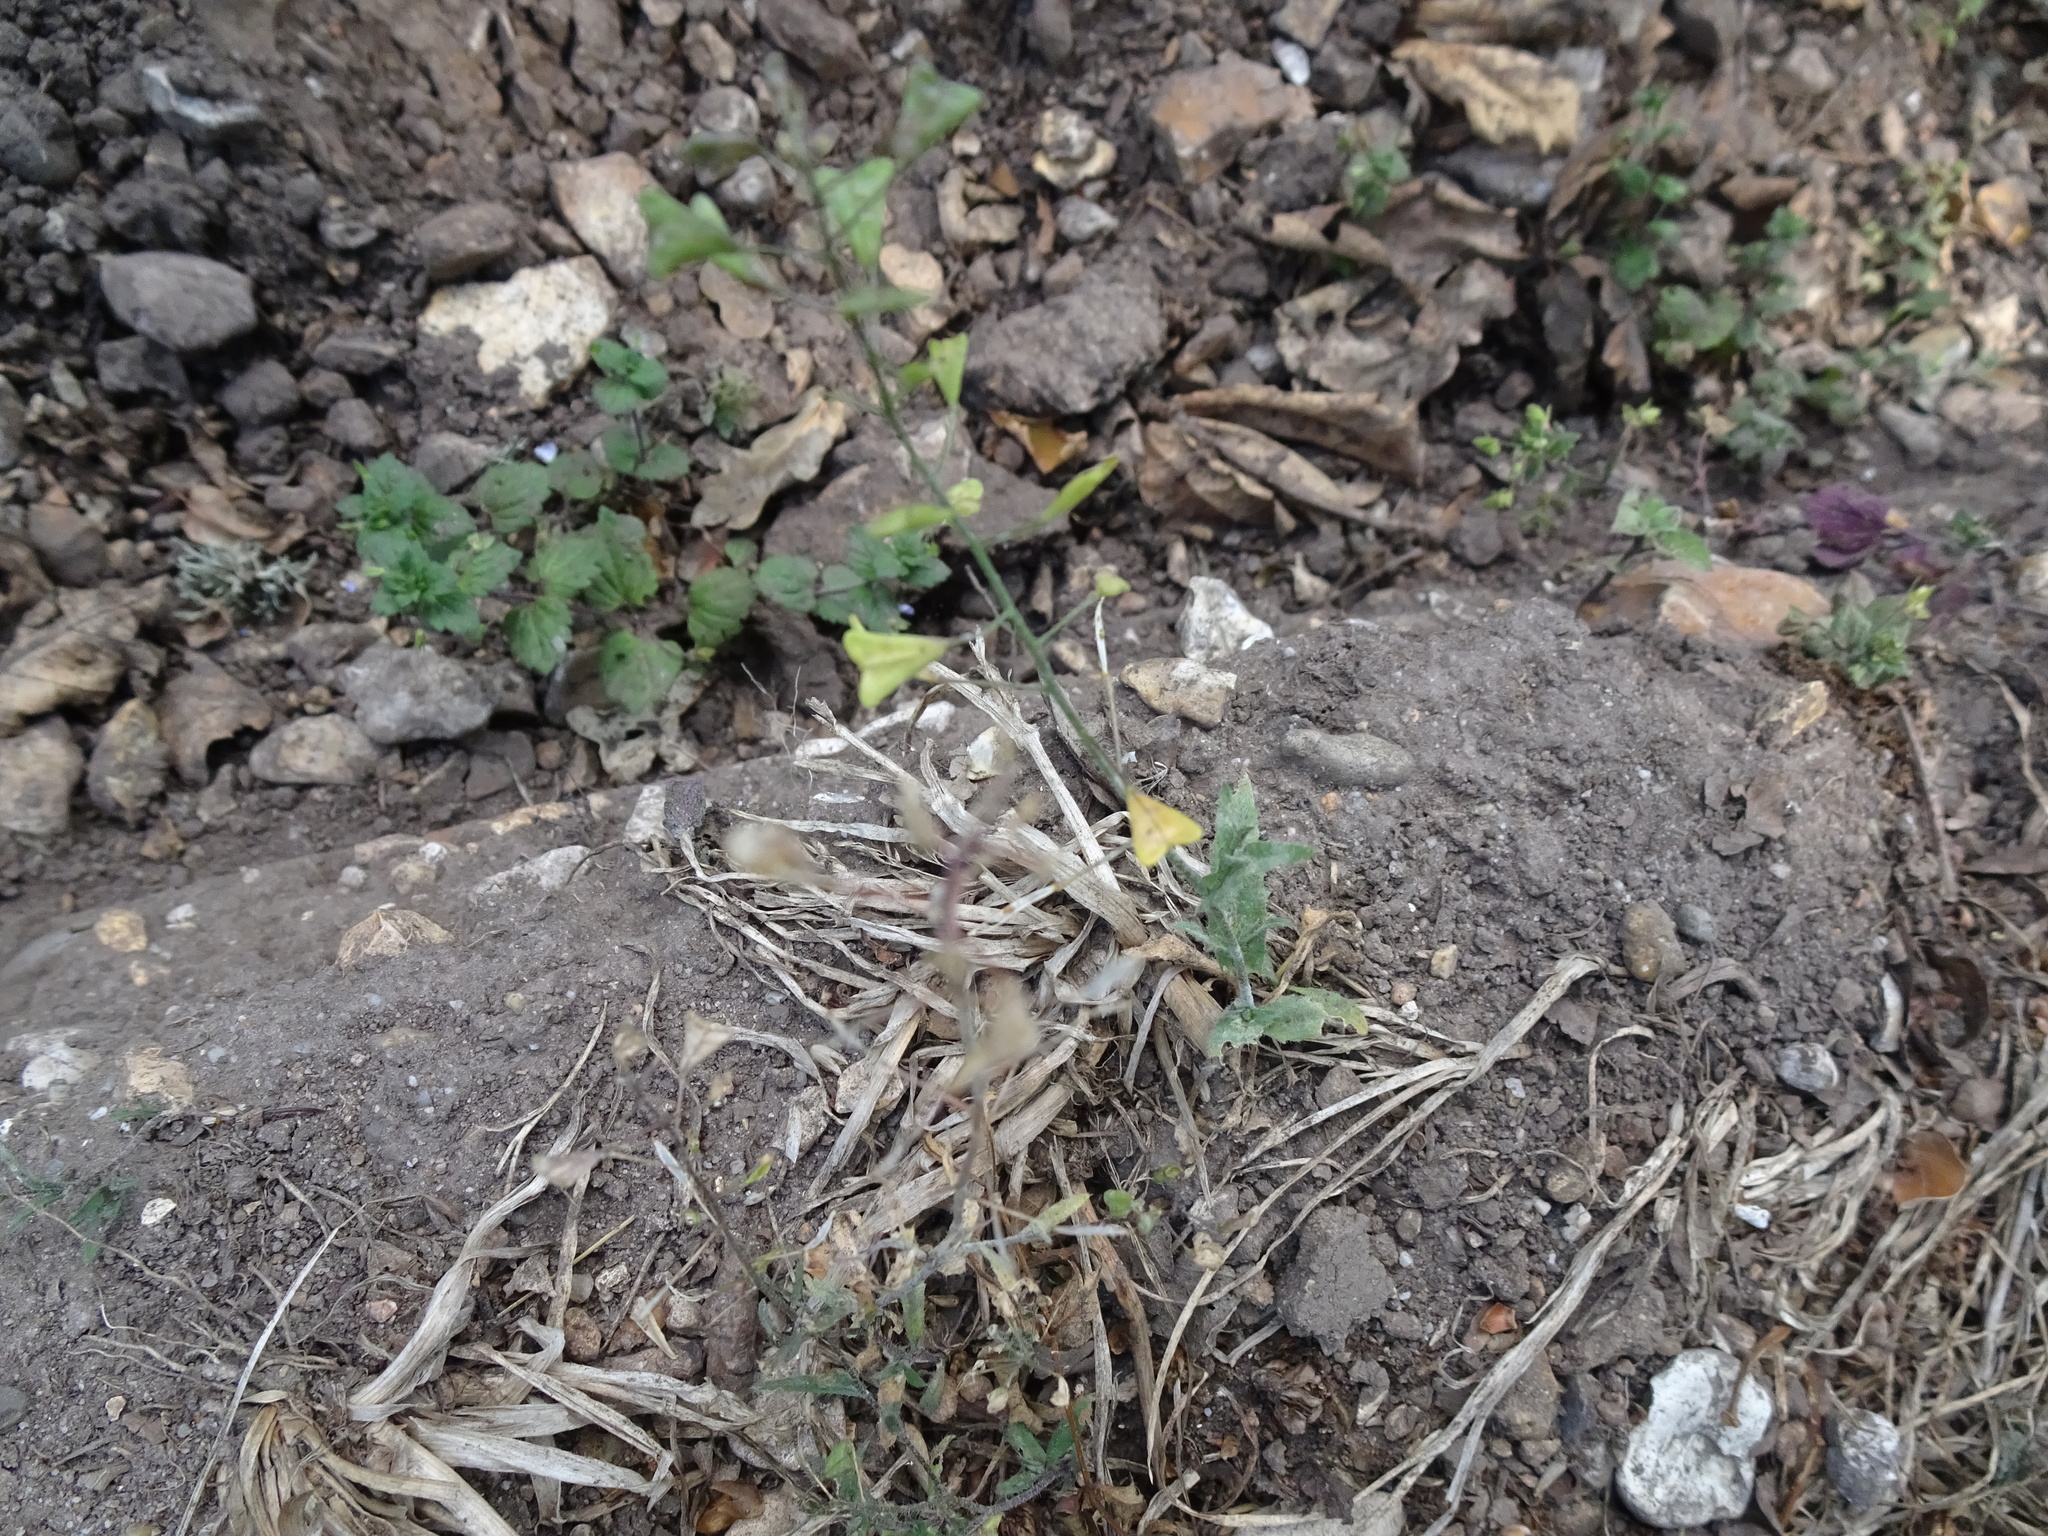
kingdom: Plantae
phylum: Tracheophyta
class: Magnoliopsida
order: Brassicales
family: Brassicaceae
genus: Capsella
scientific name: Capsella bursa-pastoris
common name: Shepherd's purse
